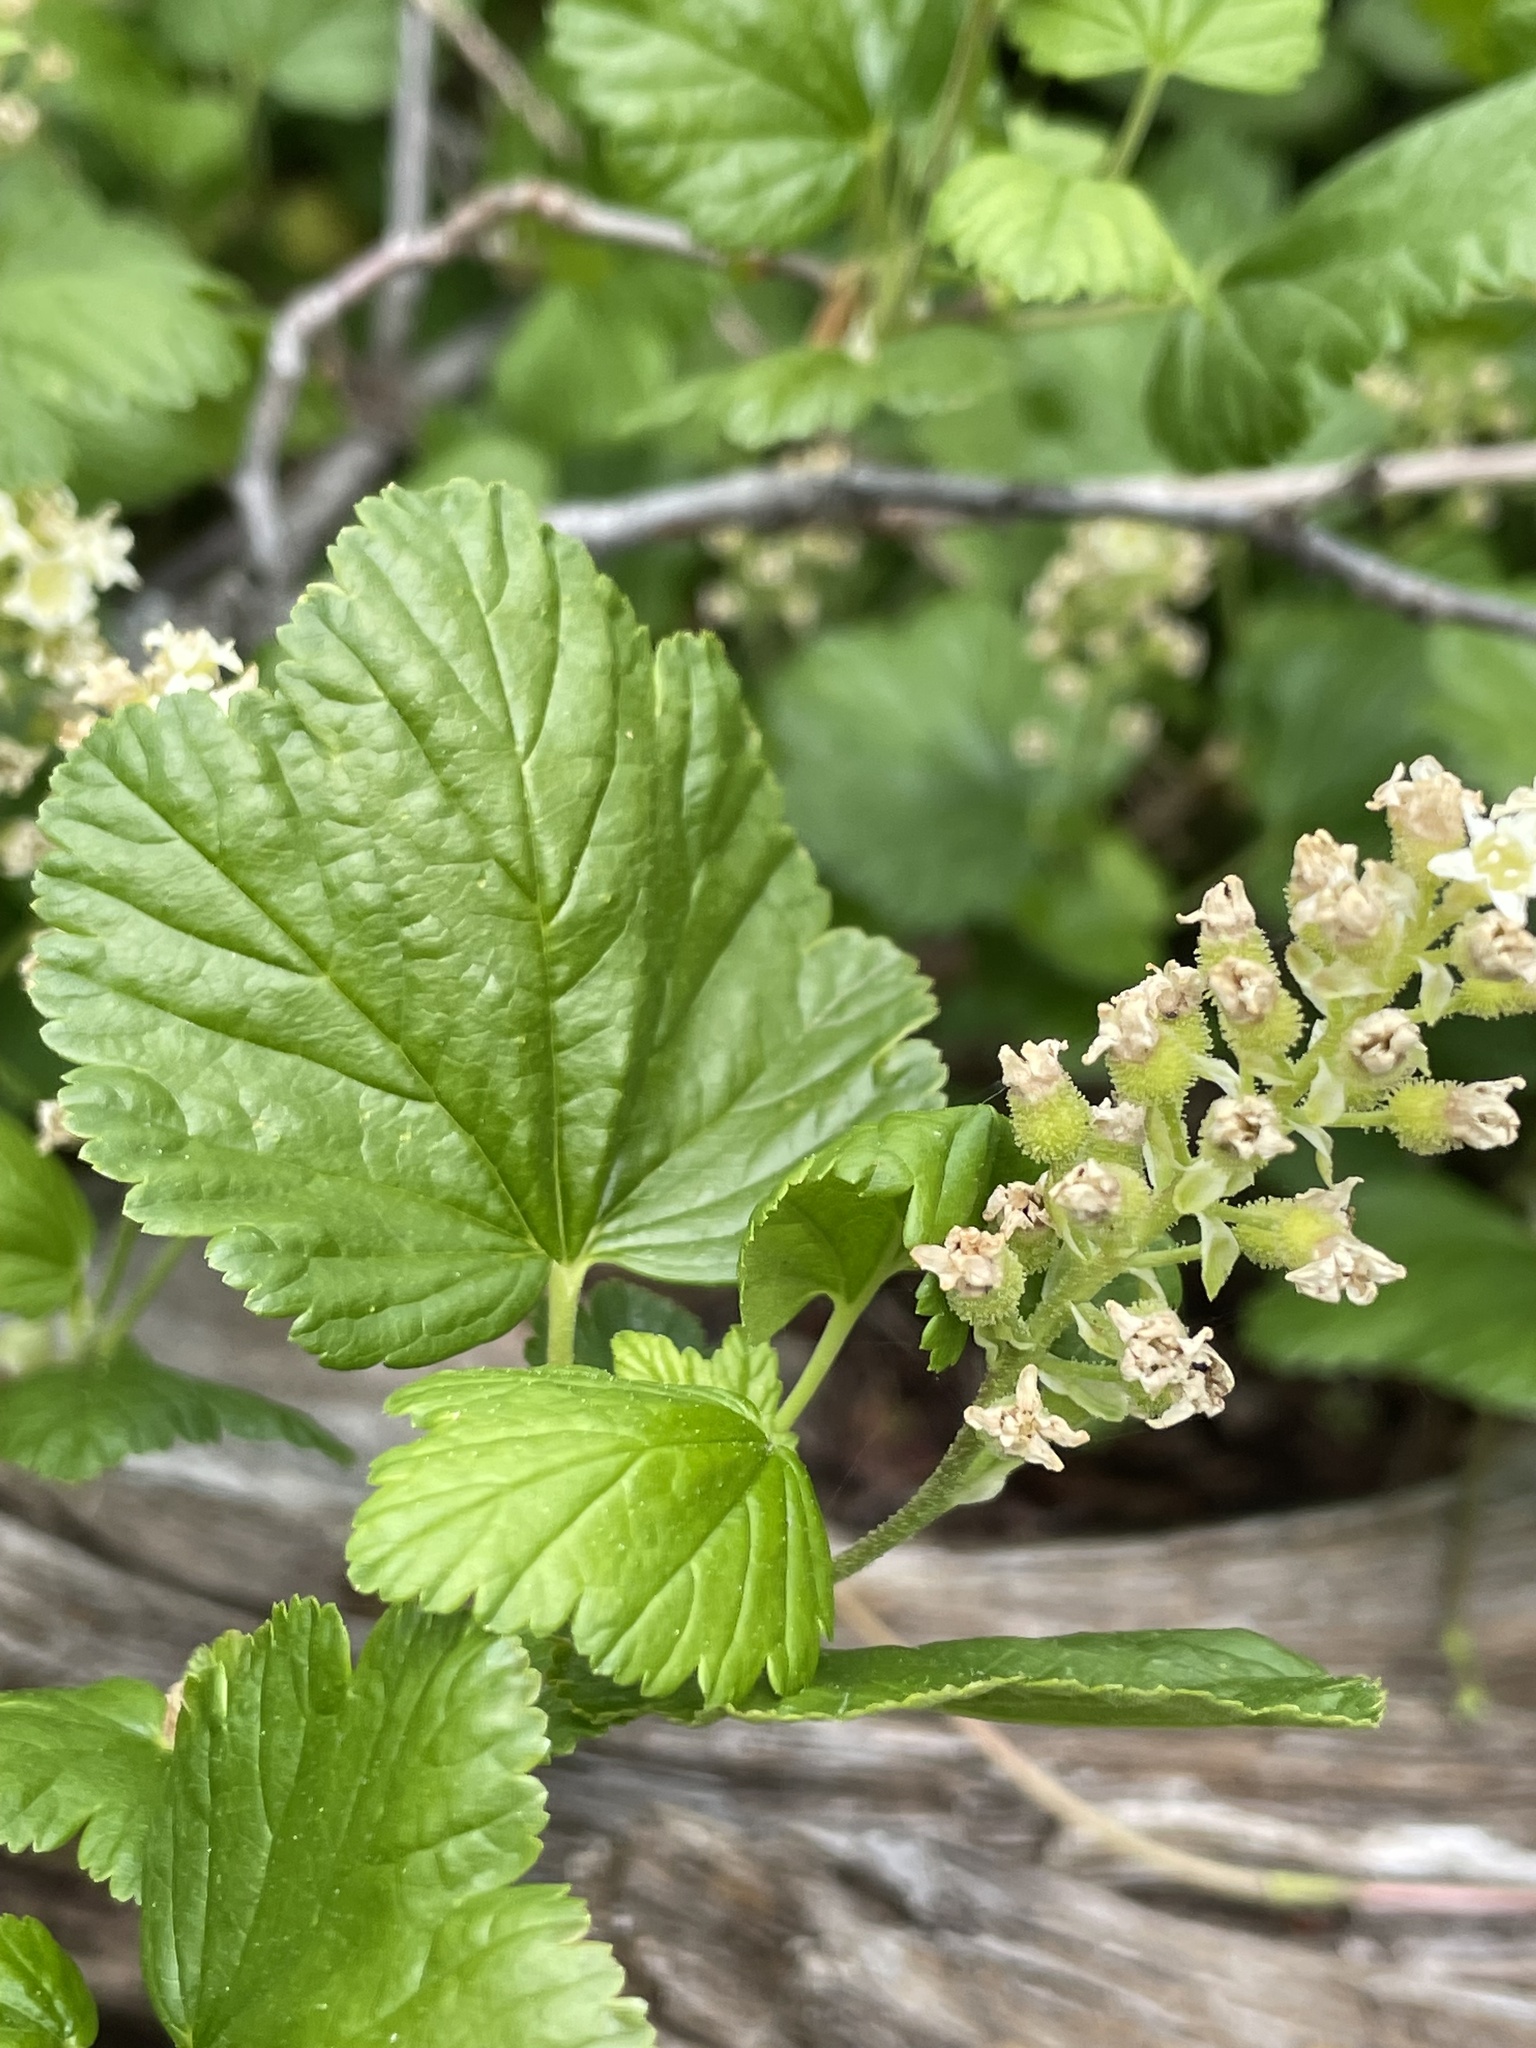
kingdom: Plantae
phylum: Tracheophyta
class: Magnoliopsida
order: Saxifragales
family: Grossulariaceae
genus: Ribes
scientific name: Ribes wolfii
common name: Rothrock currant
